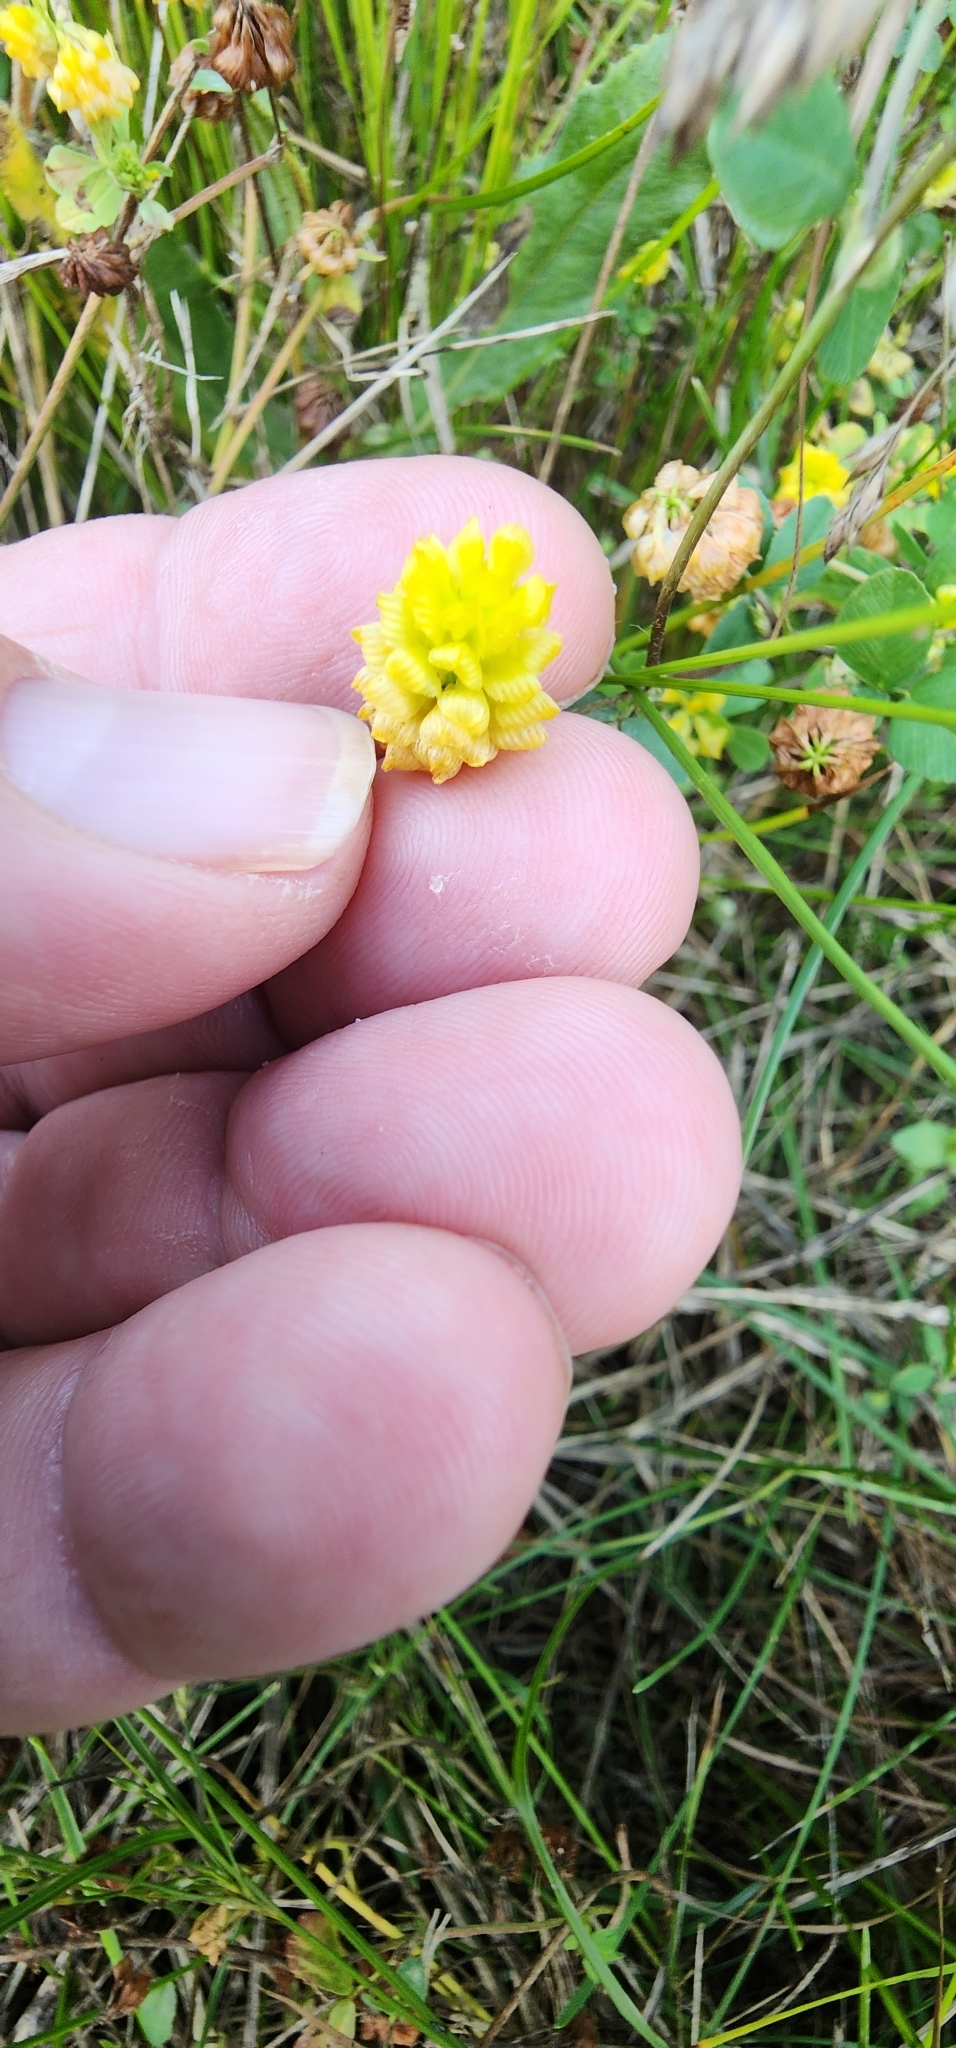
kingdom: Plantae
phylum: Tracheophyta
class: Magnoliopsida
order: Fabales
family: Fabaceae
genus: Trifolium
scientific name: Trifolium campestre
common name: Field clover
